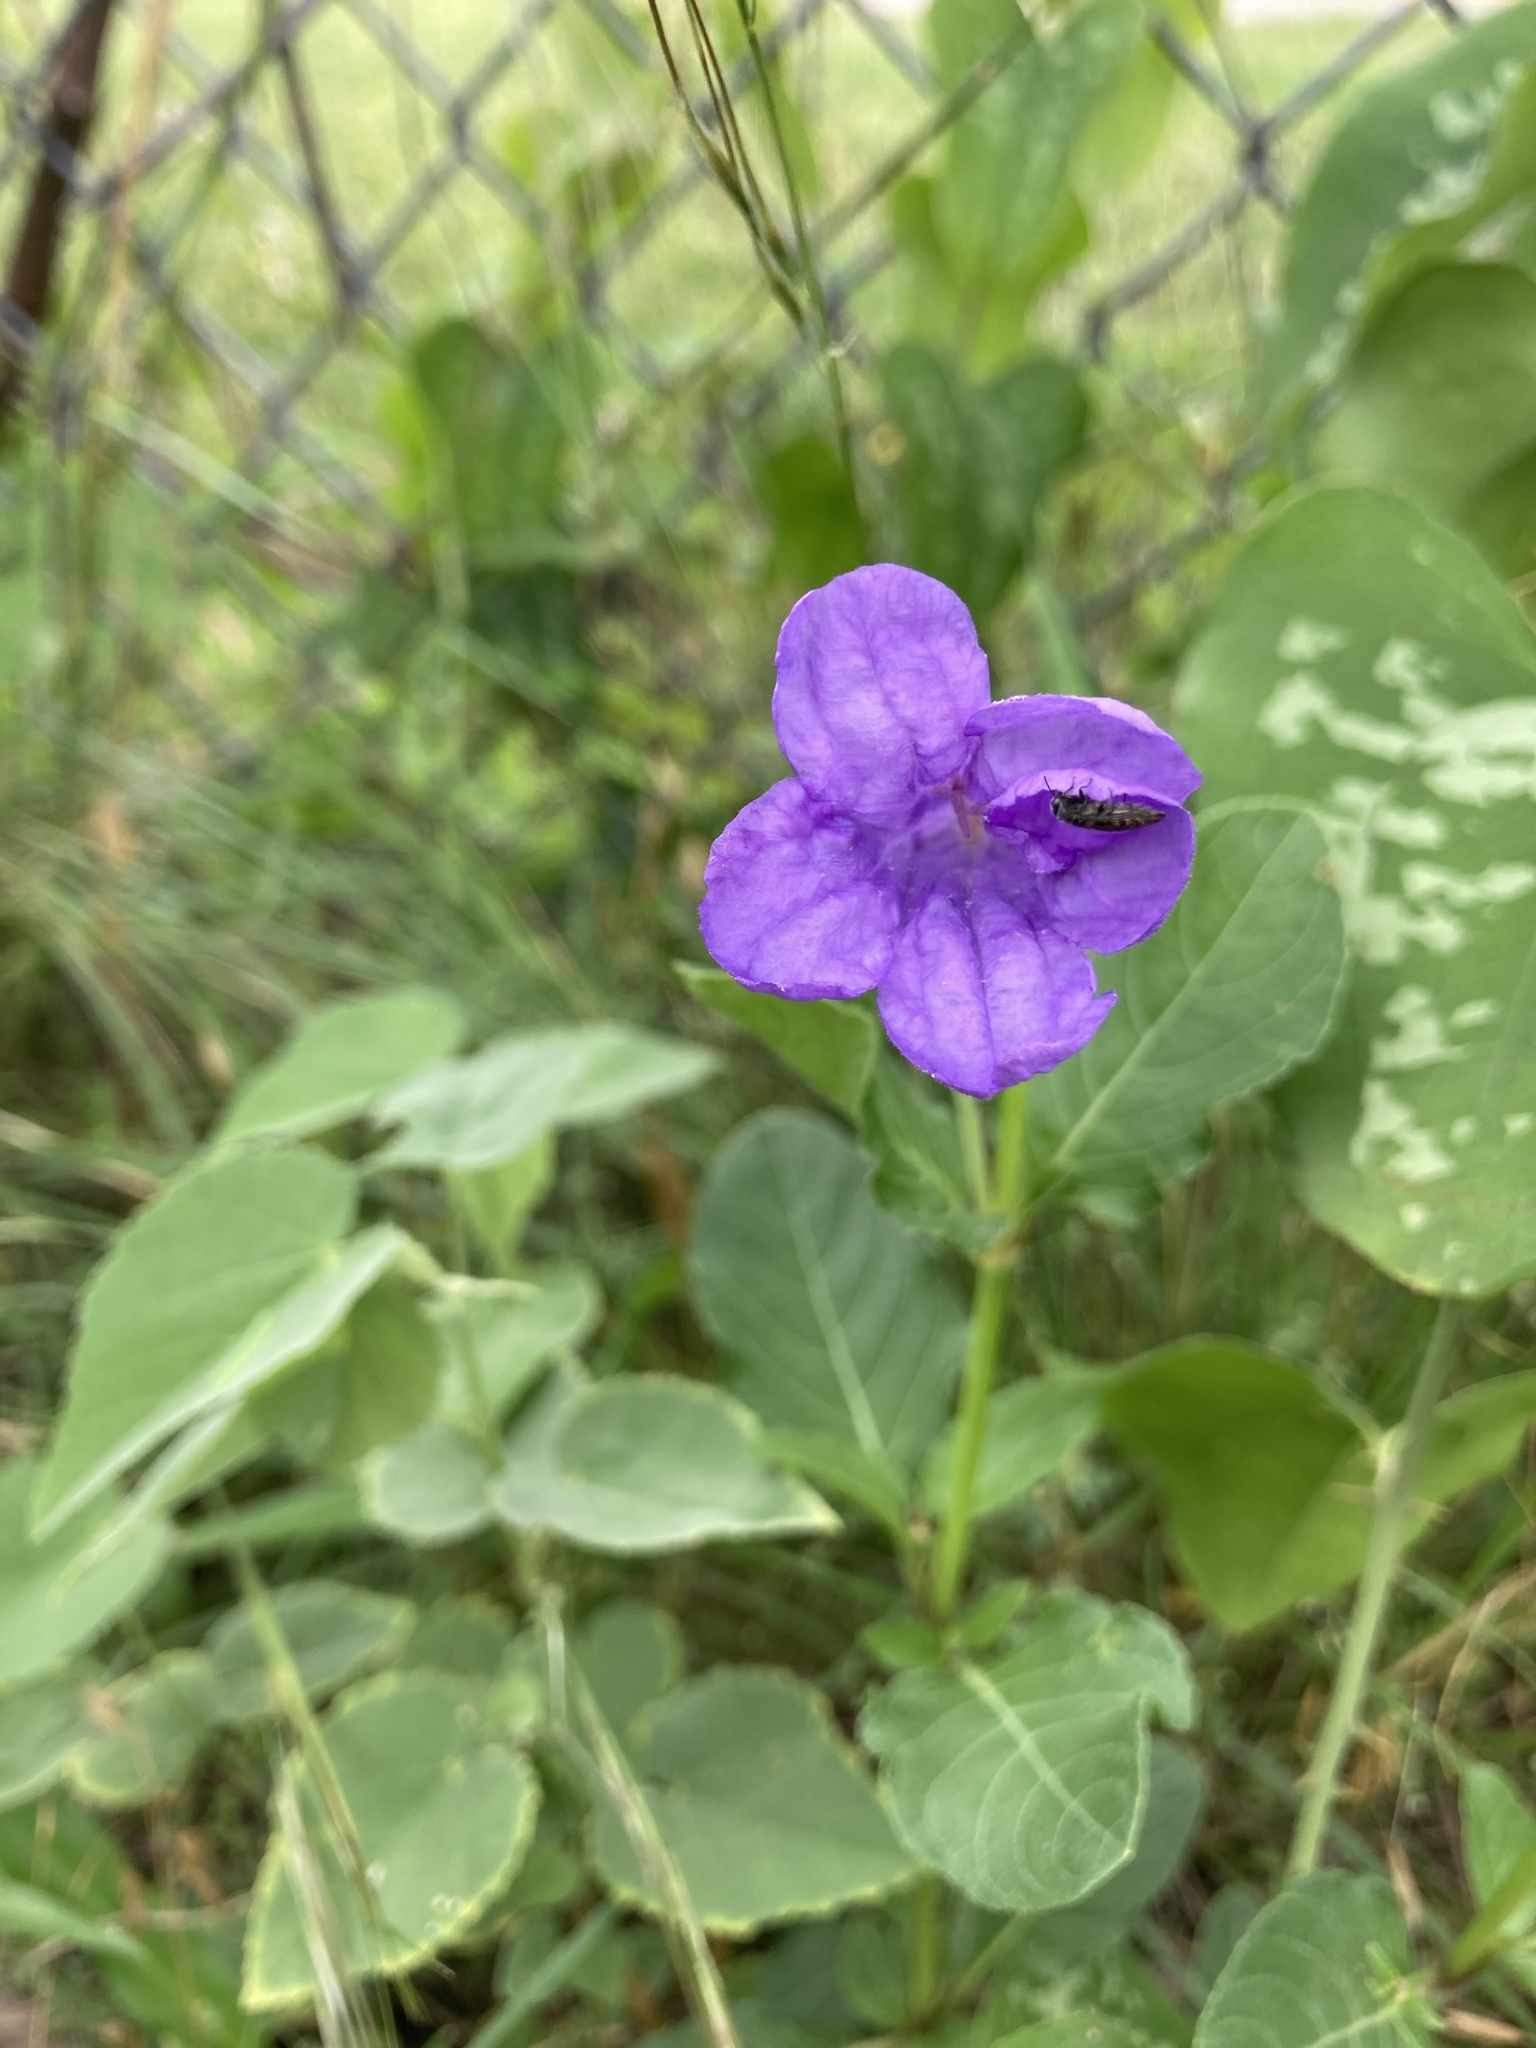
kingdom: Plantae
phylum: Tracheophyta
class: Magnoliopsida
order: Lamiales
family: Acanthaceae
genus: Ruellia
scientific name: Ruellia ciliatiflora
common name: Hairyflower wild petunia
